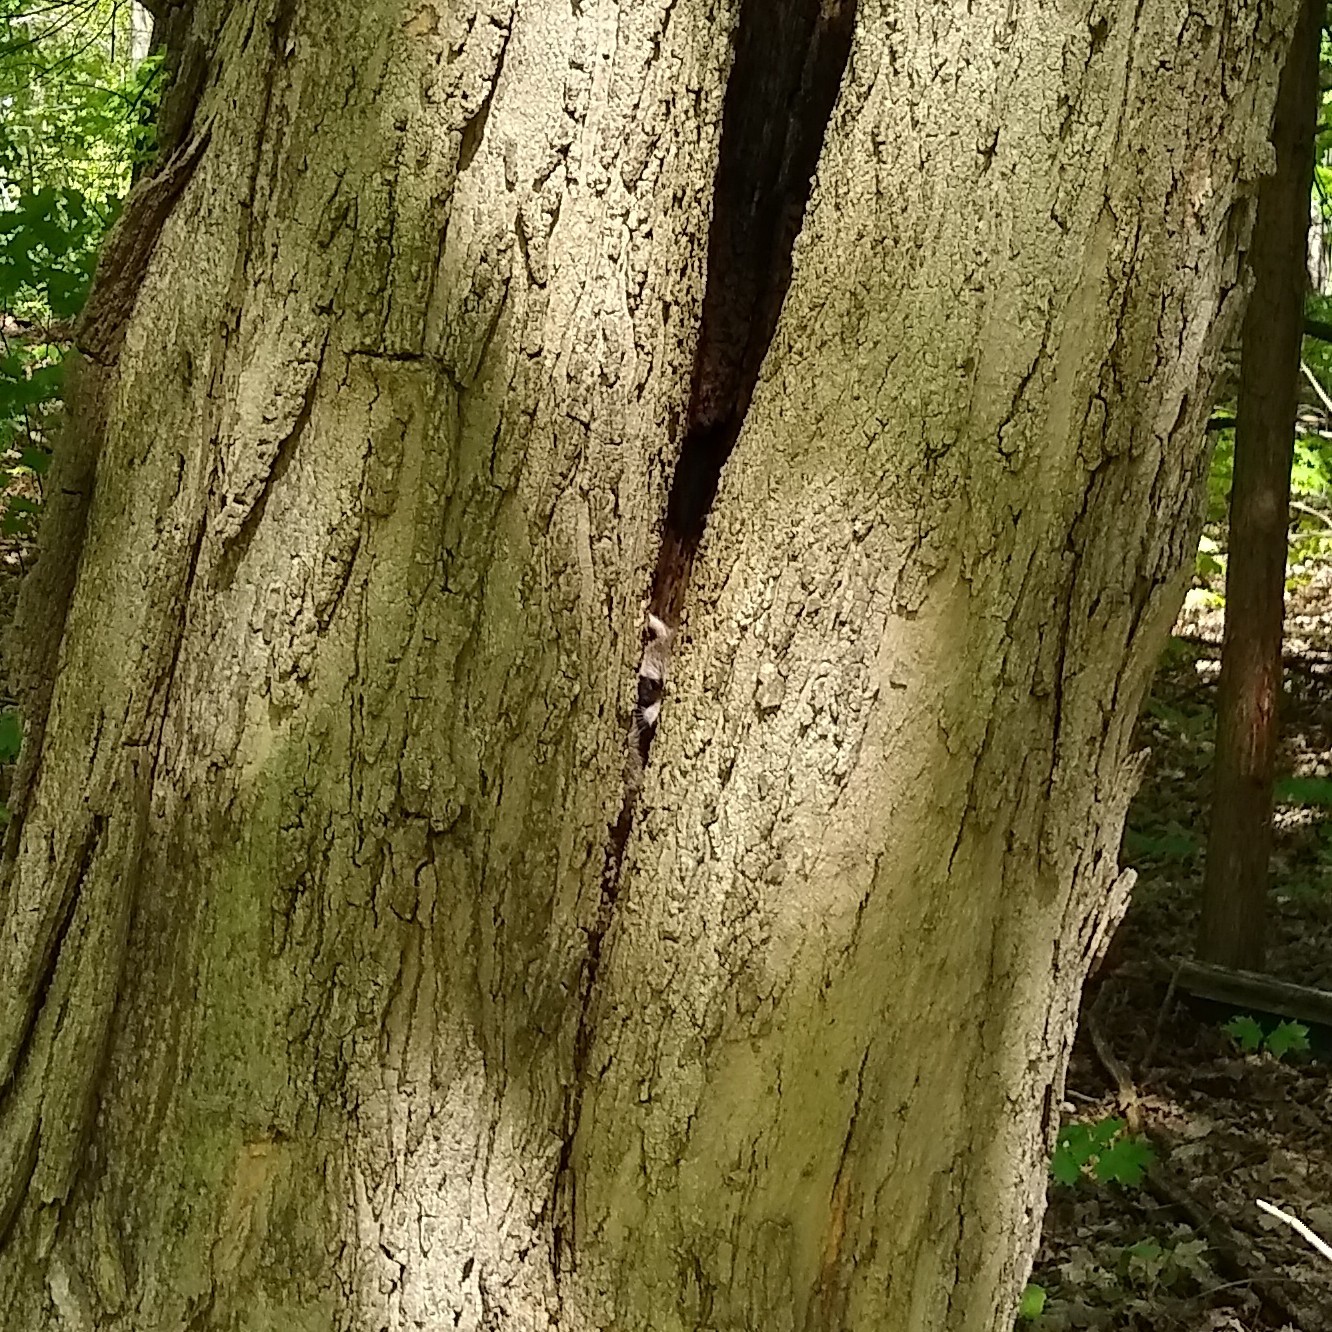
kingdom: Animalia
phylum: Chordata
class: Mammalia
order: Carnivora
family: Procyonidae
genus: Procyon
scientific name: Procyon lotor
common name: Raccoon
